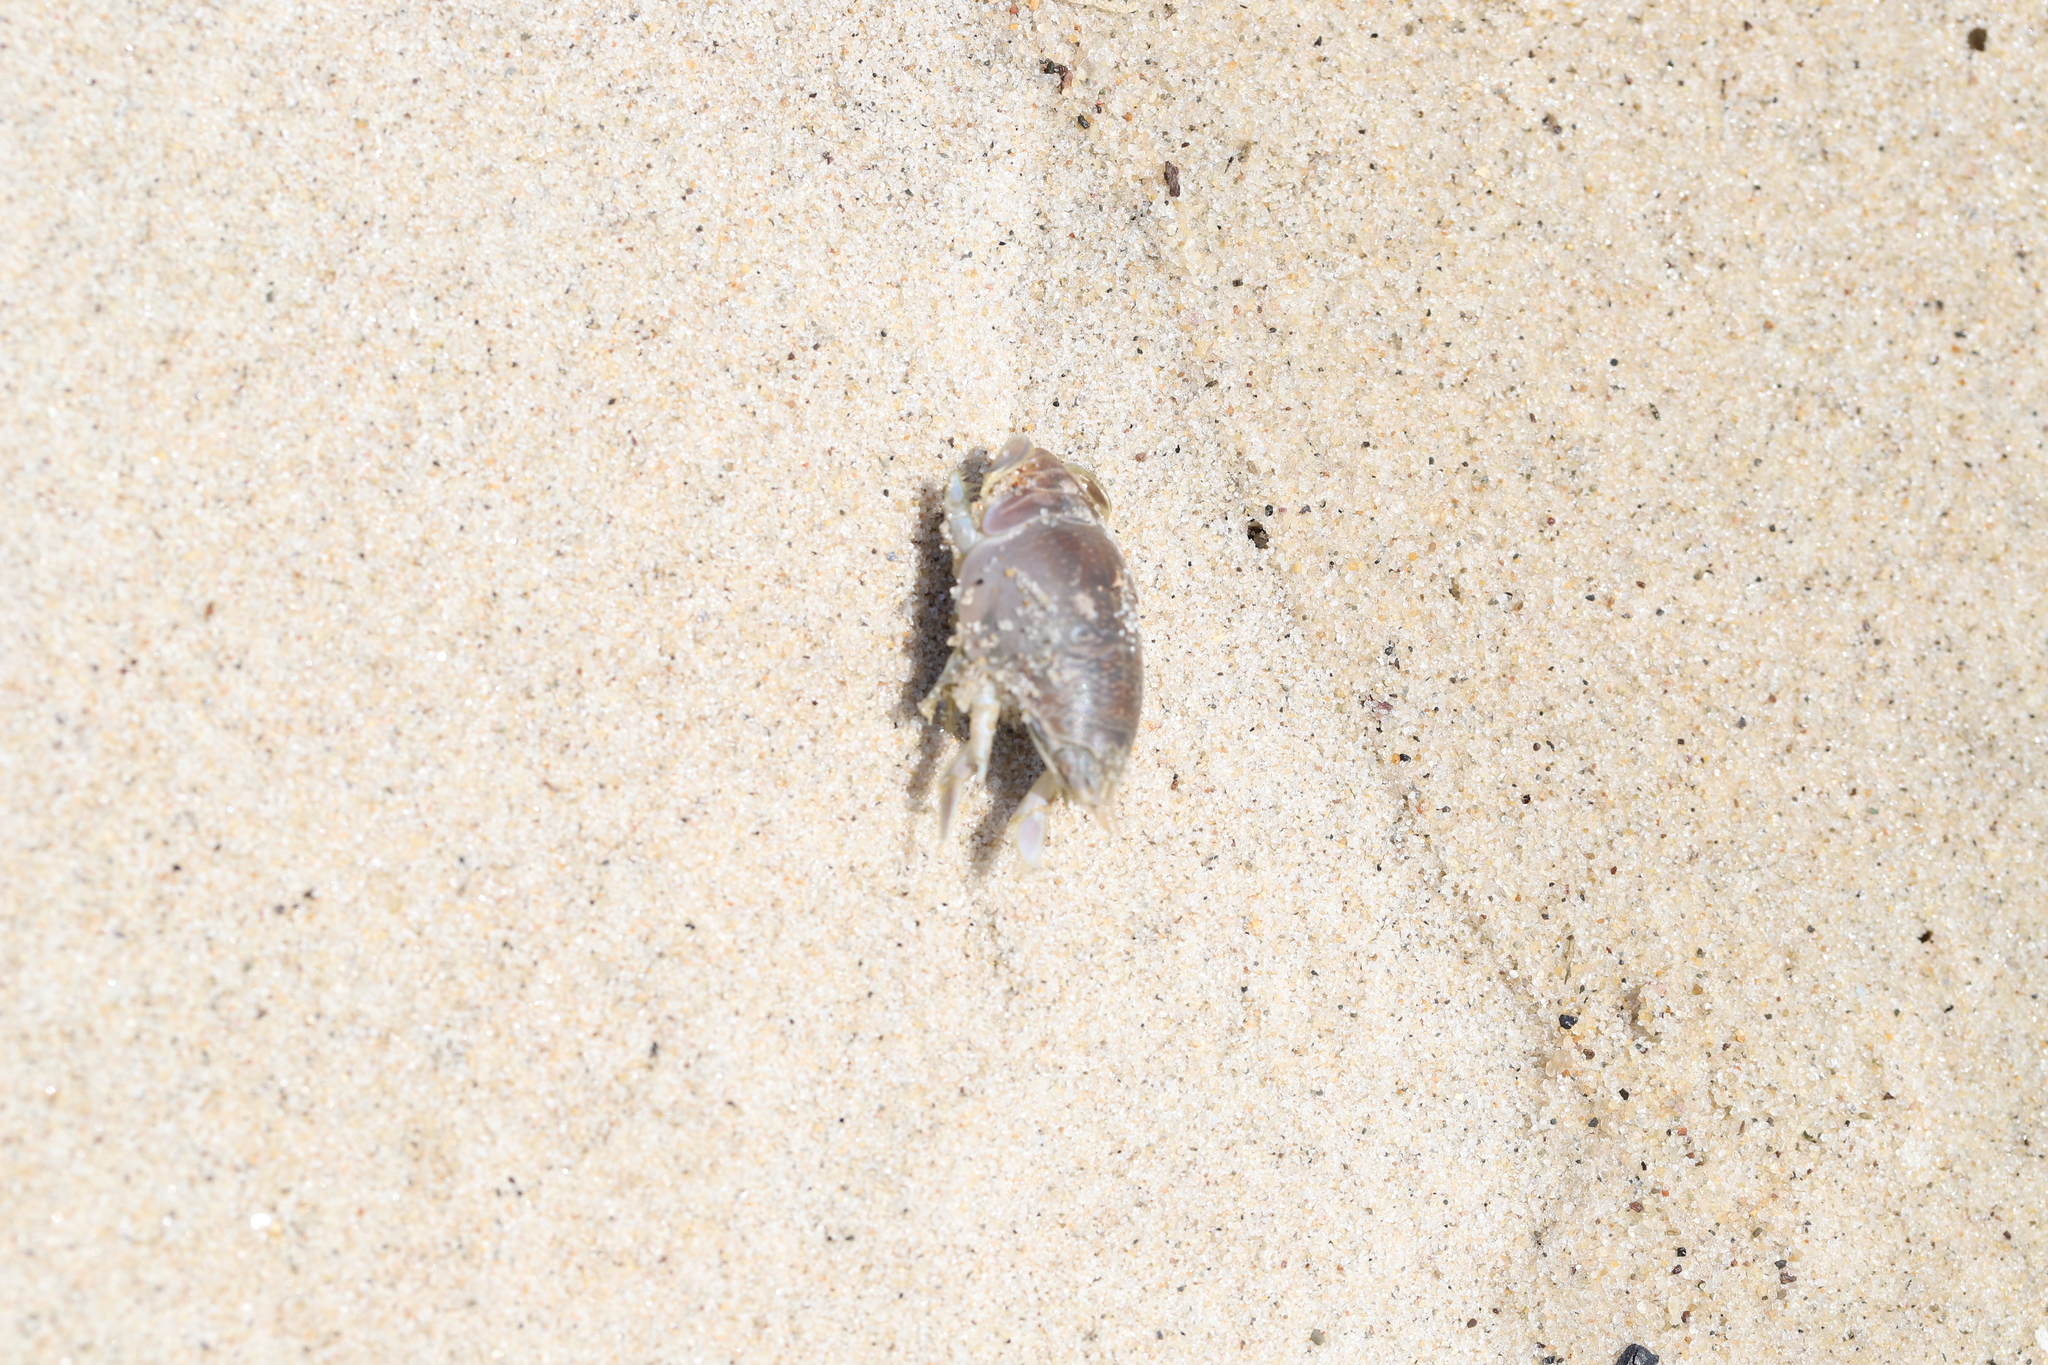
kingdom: Animalia
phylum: Arthropoda
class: Malacostraca
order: Decapoda
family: Hippidae
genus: Emerita
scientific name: Emerita talpoida
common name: Atlantic sand crab
